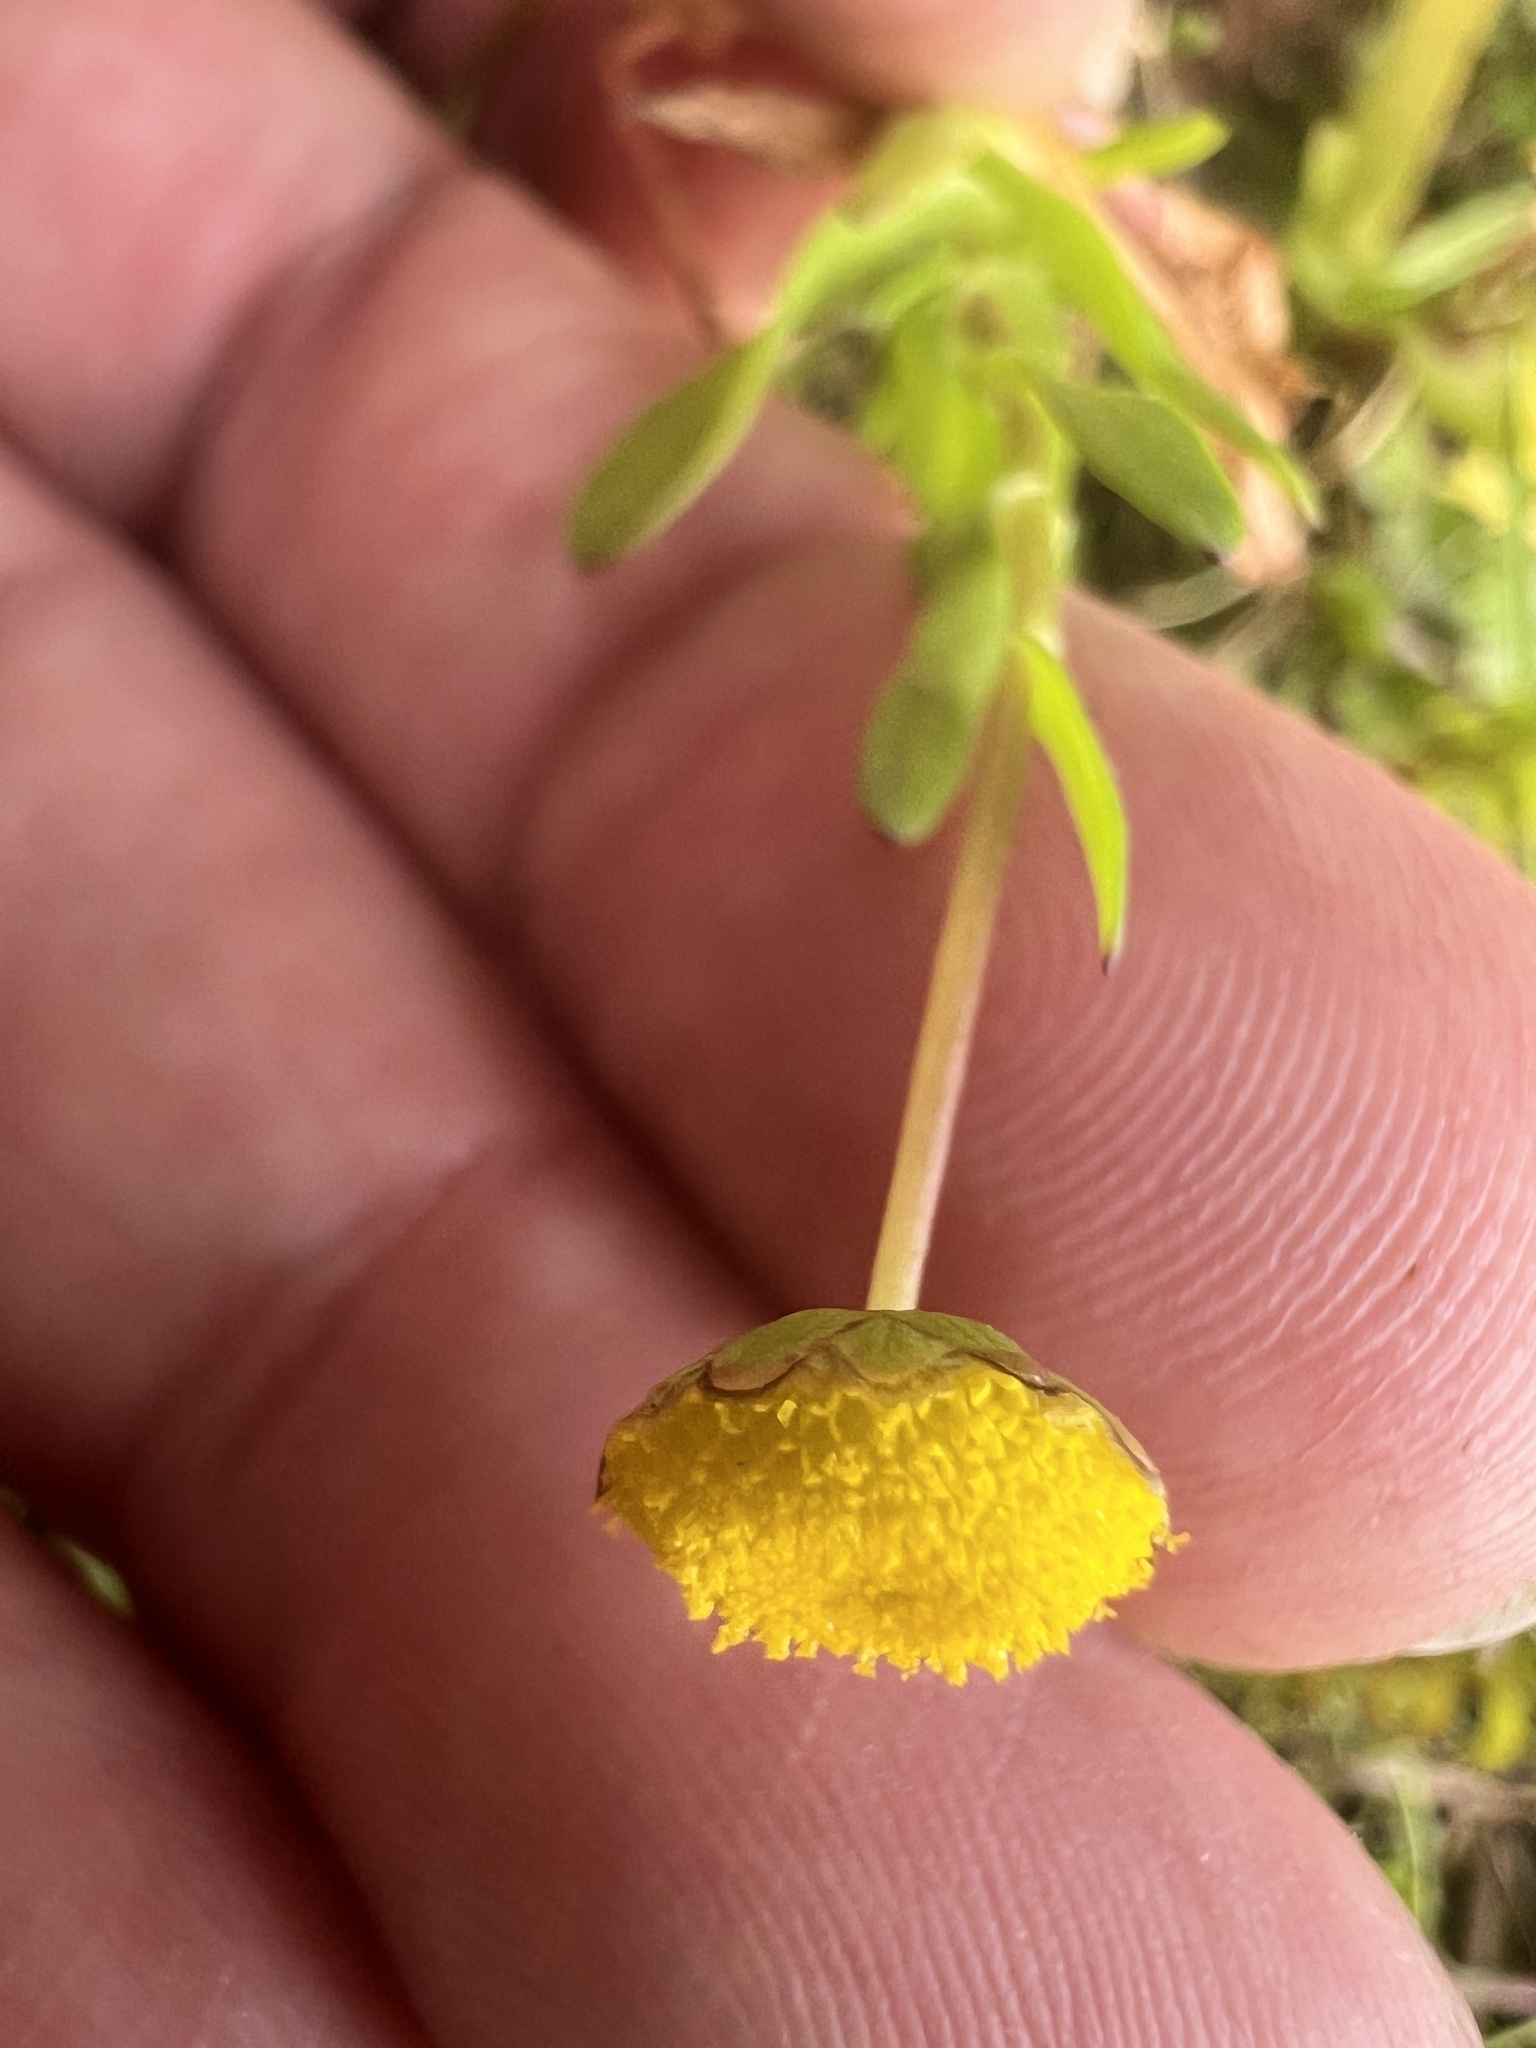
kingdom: Plantae
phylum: Tracheophyta
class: Magnoliopsida
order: Asterales
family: Asteraceae
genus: Cotula
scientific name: Cotula coronopifolia
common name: Buttonweed
